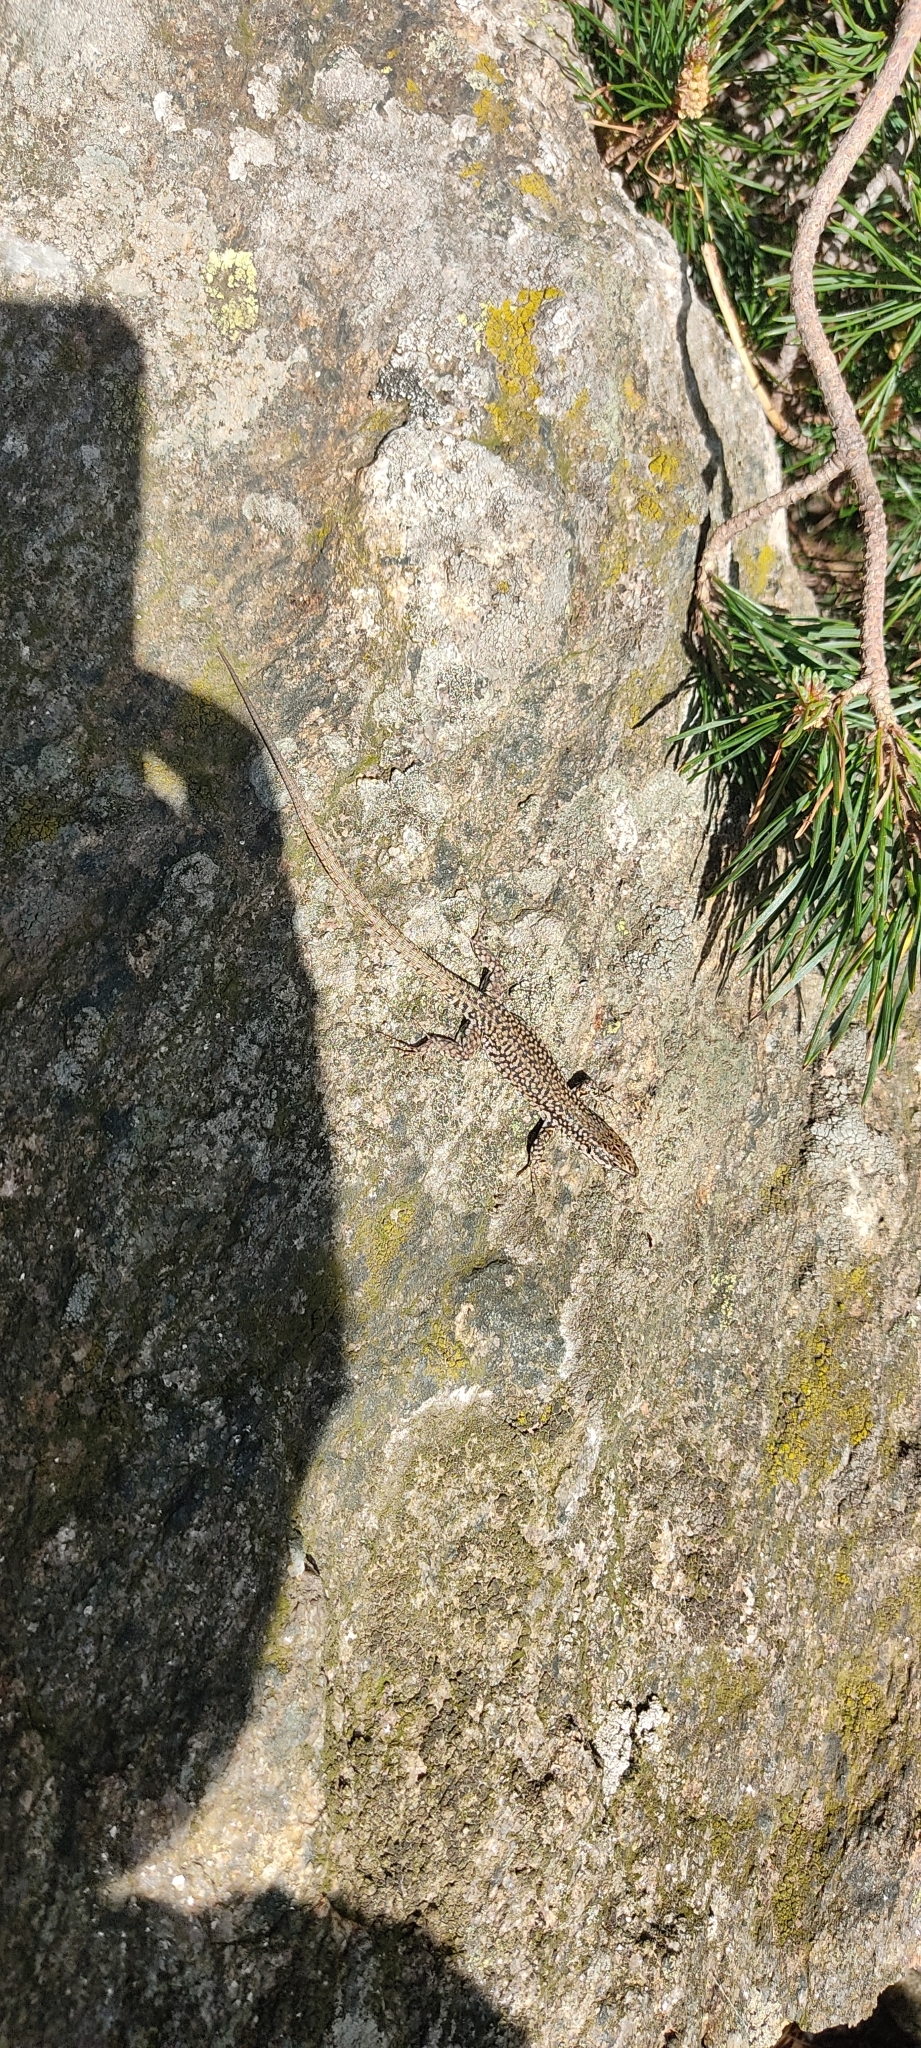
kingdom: Animalia
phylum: Chordata
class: Squamata
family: Lacertidae
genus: Podarcis
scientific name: Podarcis liolepis
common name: Catalonian wall lizard
